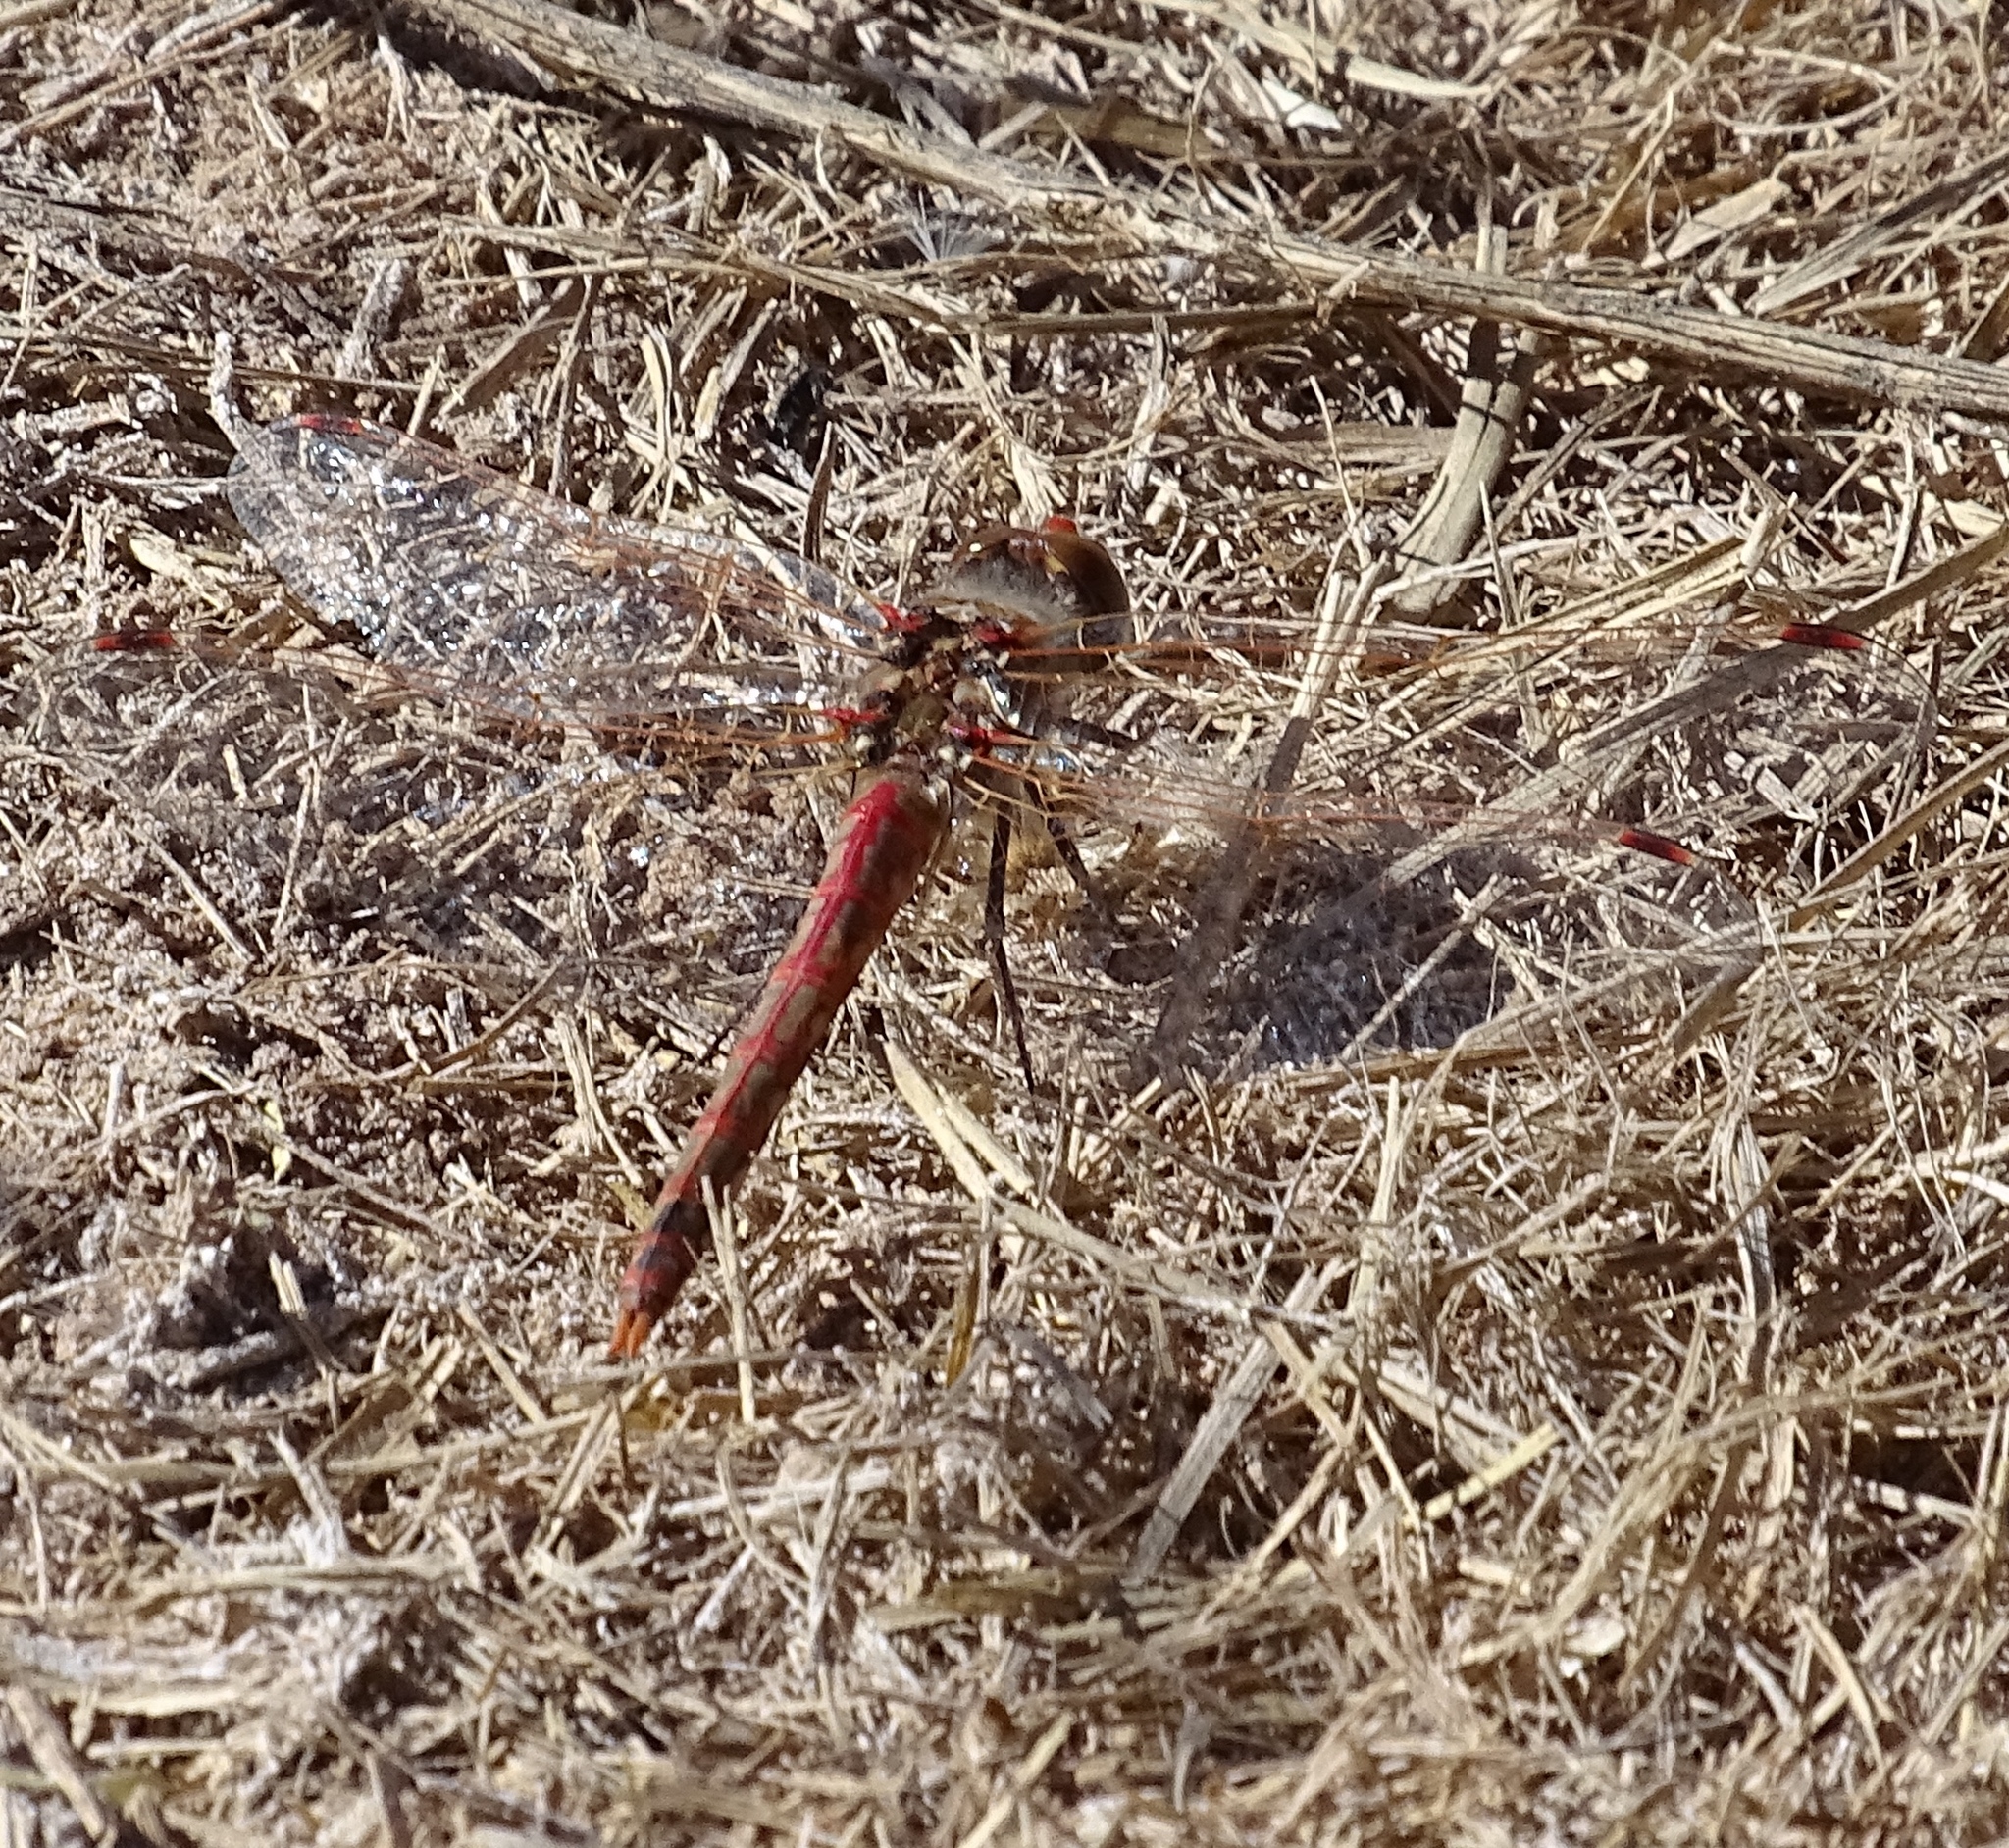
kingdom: Animalia
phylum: Arthropoda
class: Insecta
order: Odonata
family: Libellulidae
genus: Sympetrum
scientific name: Sympetrum corruptum
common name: Variegated meadowhawk
